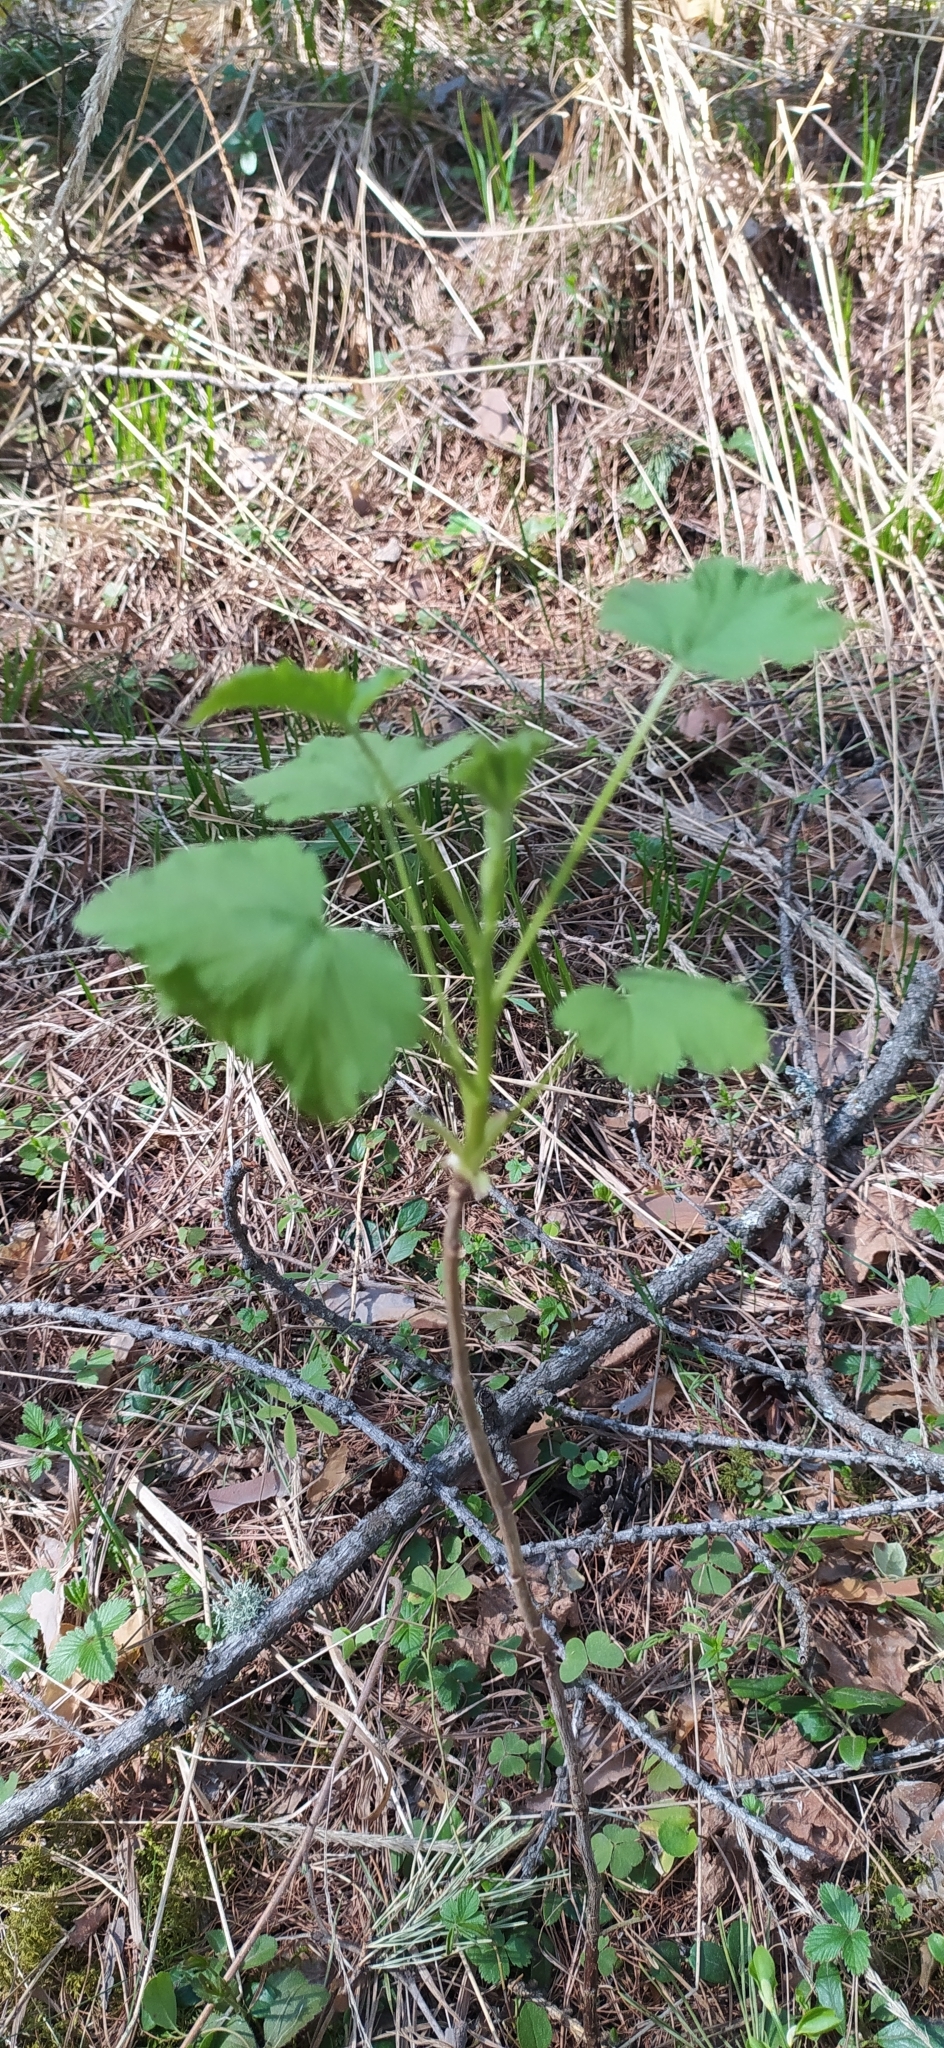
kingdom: Plantae
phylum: Tracheophyta
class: Magnoliopsida
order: Saxifragales
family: Grossulariaceae
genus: Ribes
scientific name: Ribes nigrum
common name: Black currant
